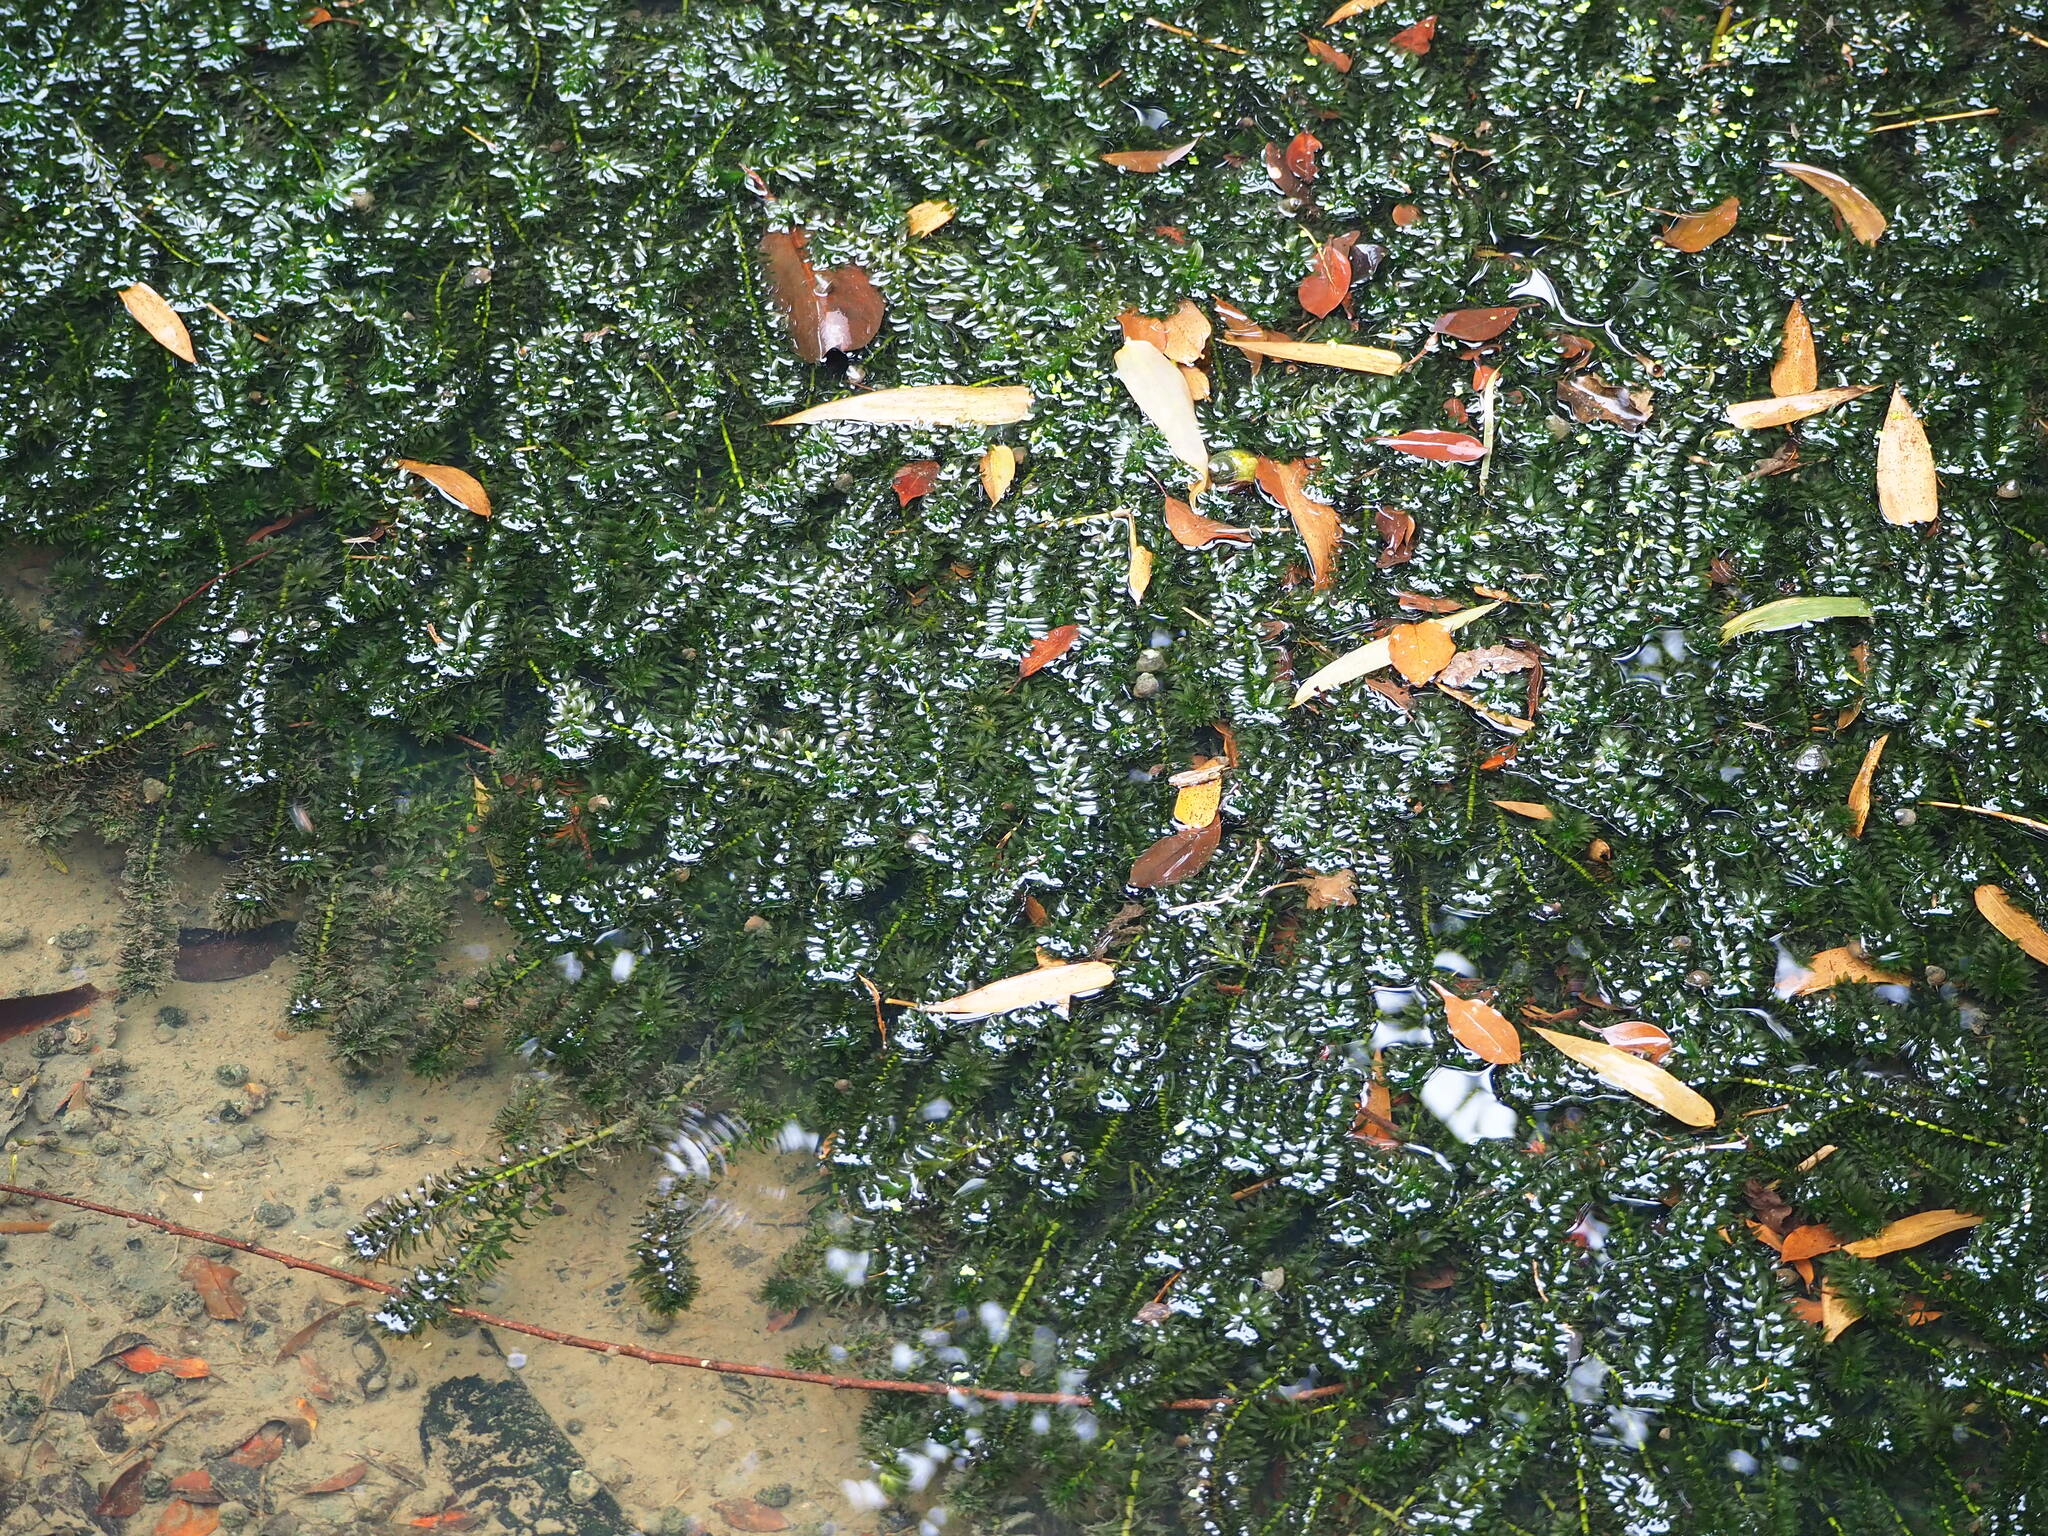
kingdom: Plantae
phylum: Tracheophyta
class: Liliopsida
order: Alismatales
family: Hydrocharitaceae
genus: Elodea
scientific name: Elodea densa
